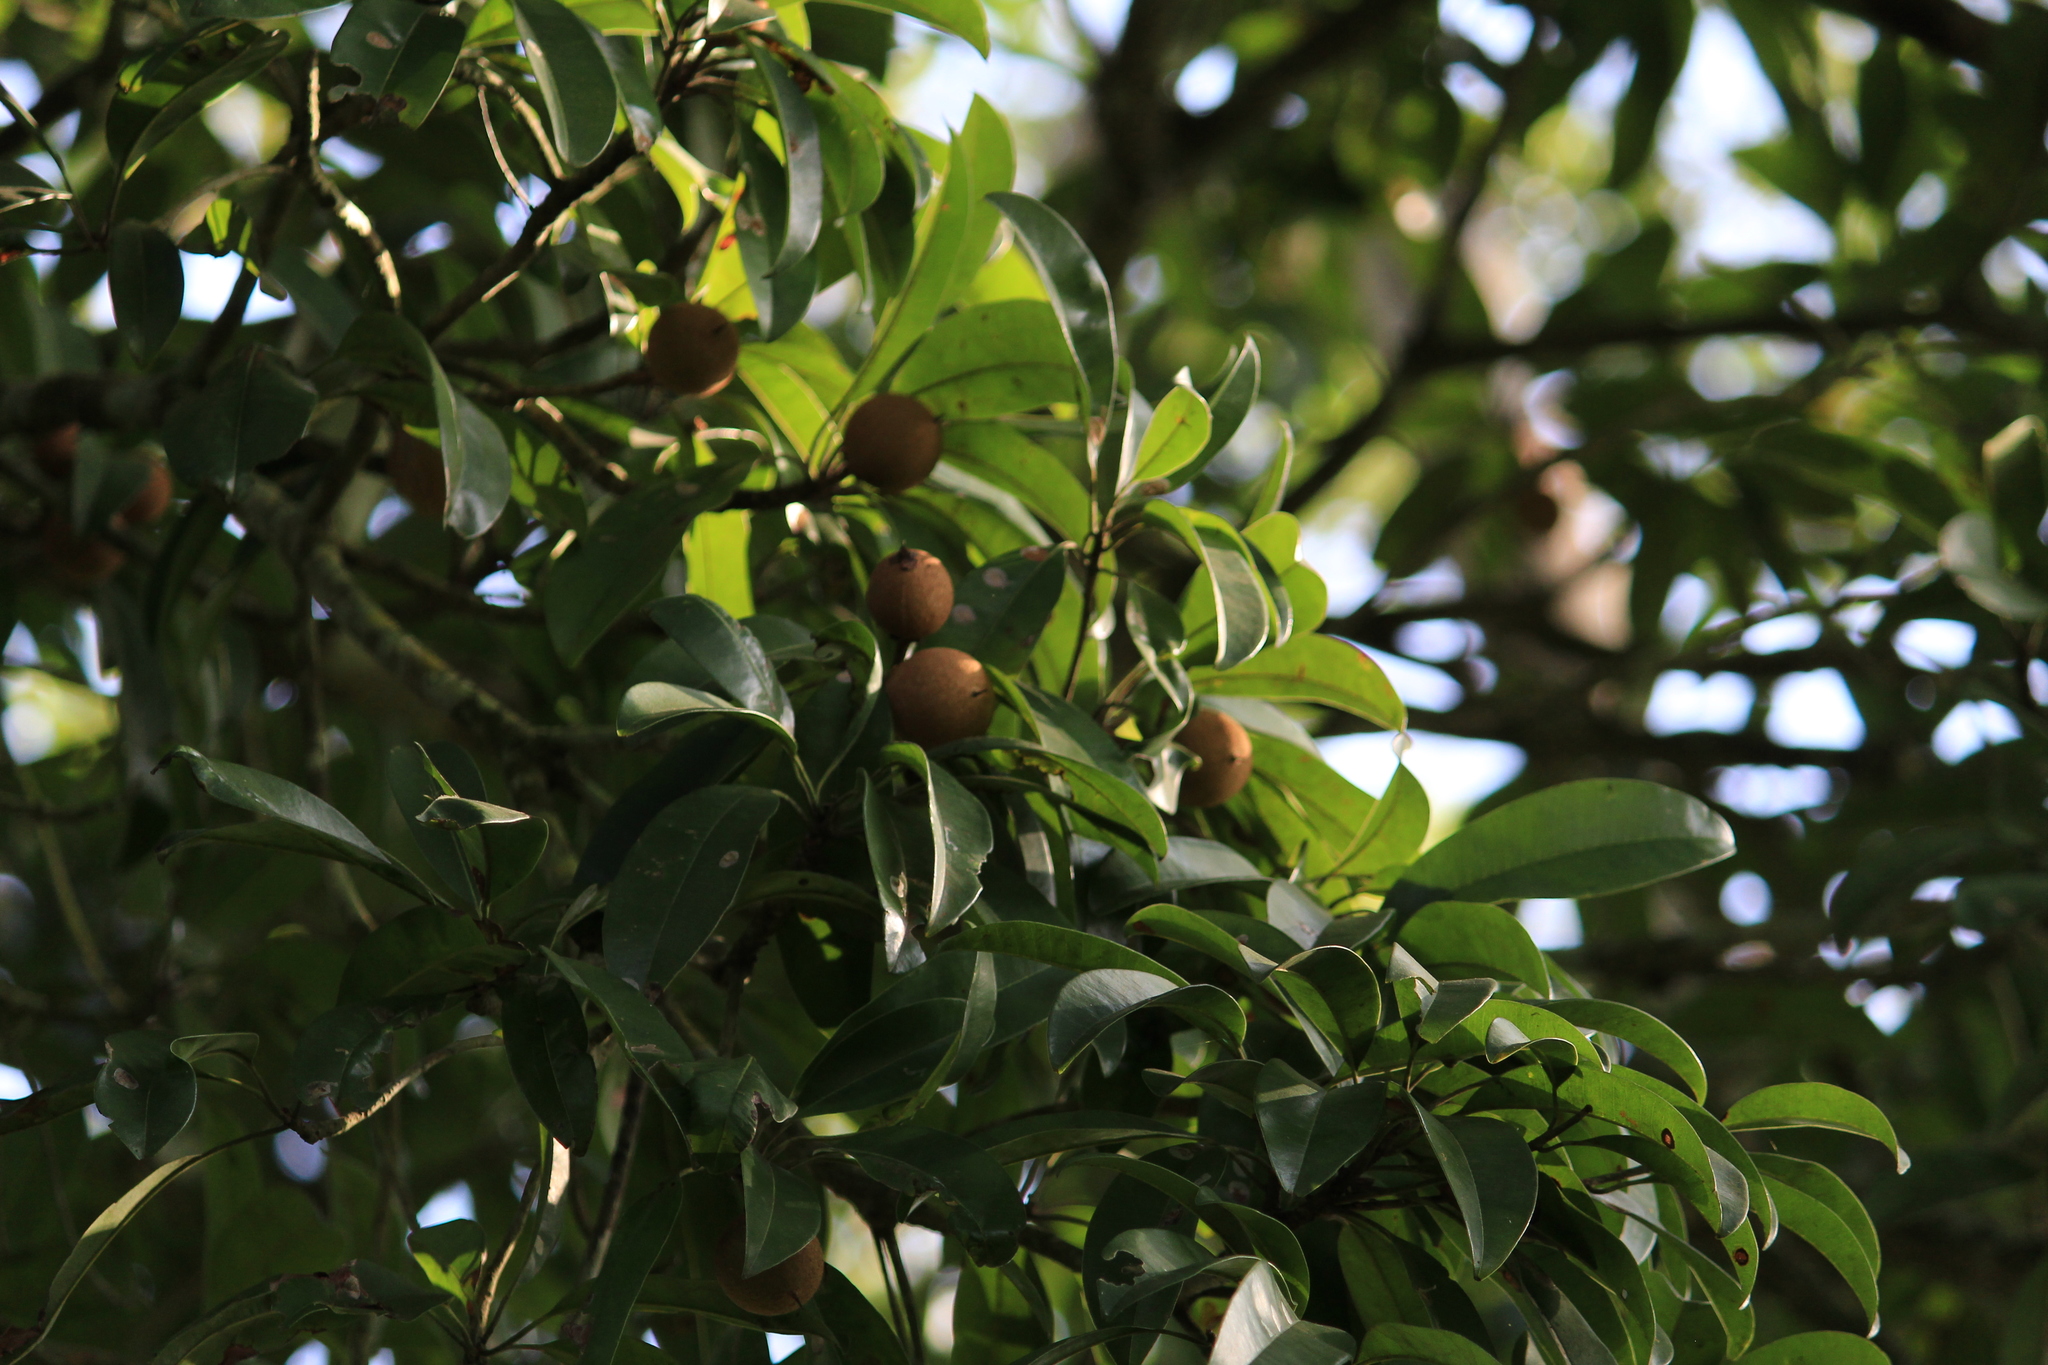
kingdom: Plantae
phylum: Tracheophyta
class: Magnoliopsida
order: Ericales
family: Sapotaceae
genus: Manilkara
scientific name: Manilkara zapota
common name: Sapodilla
